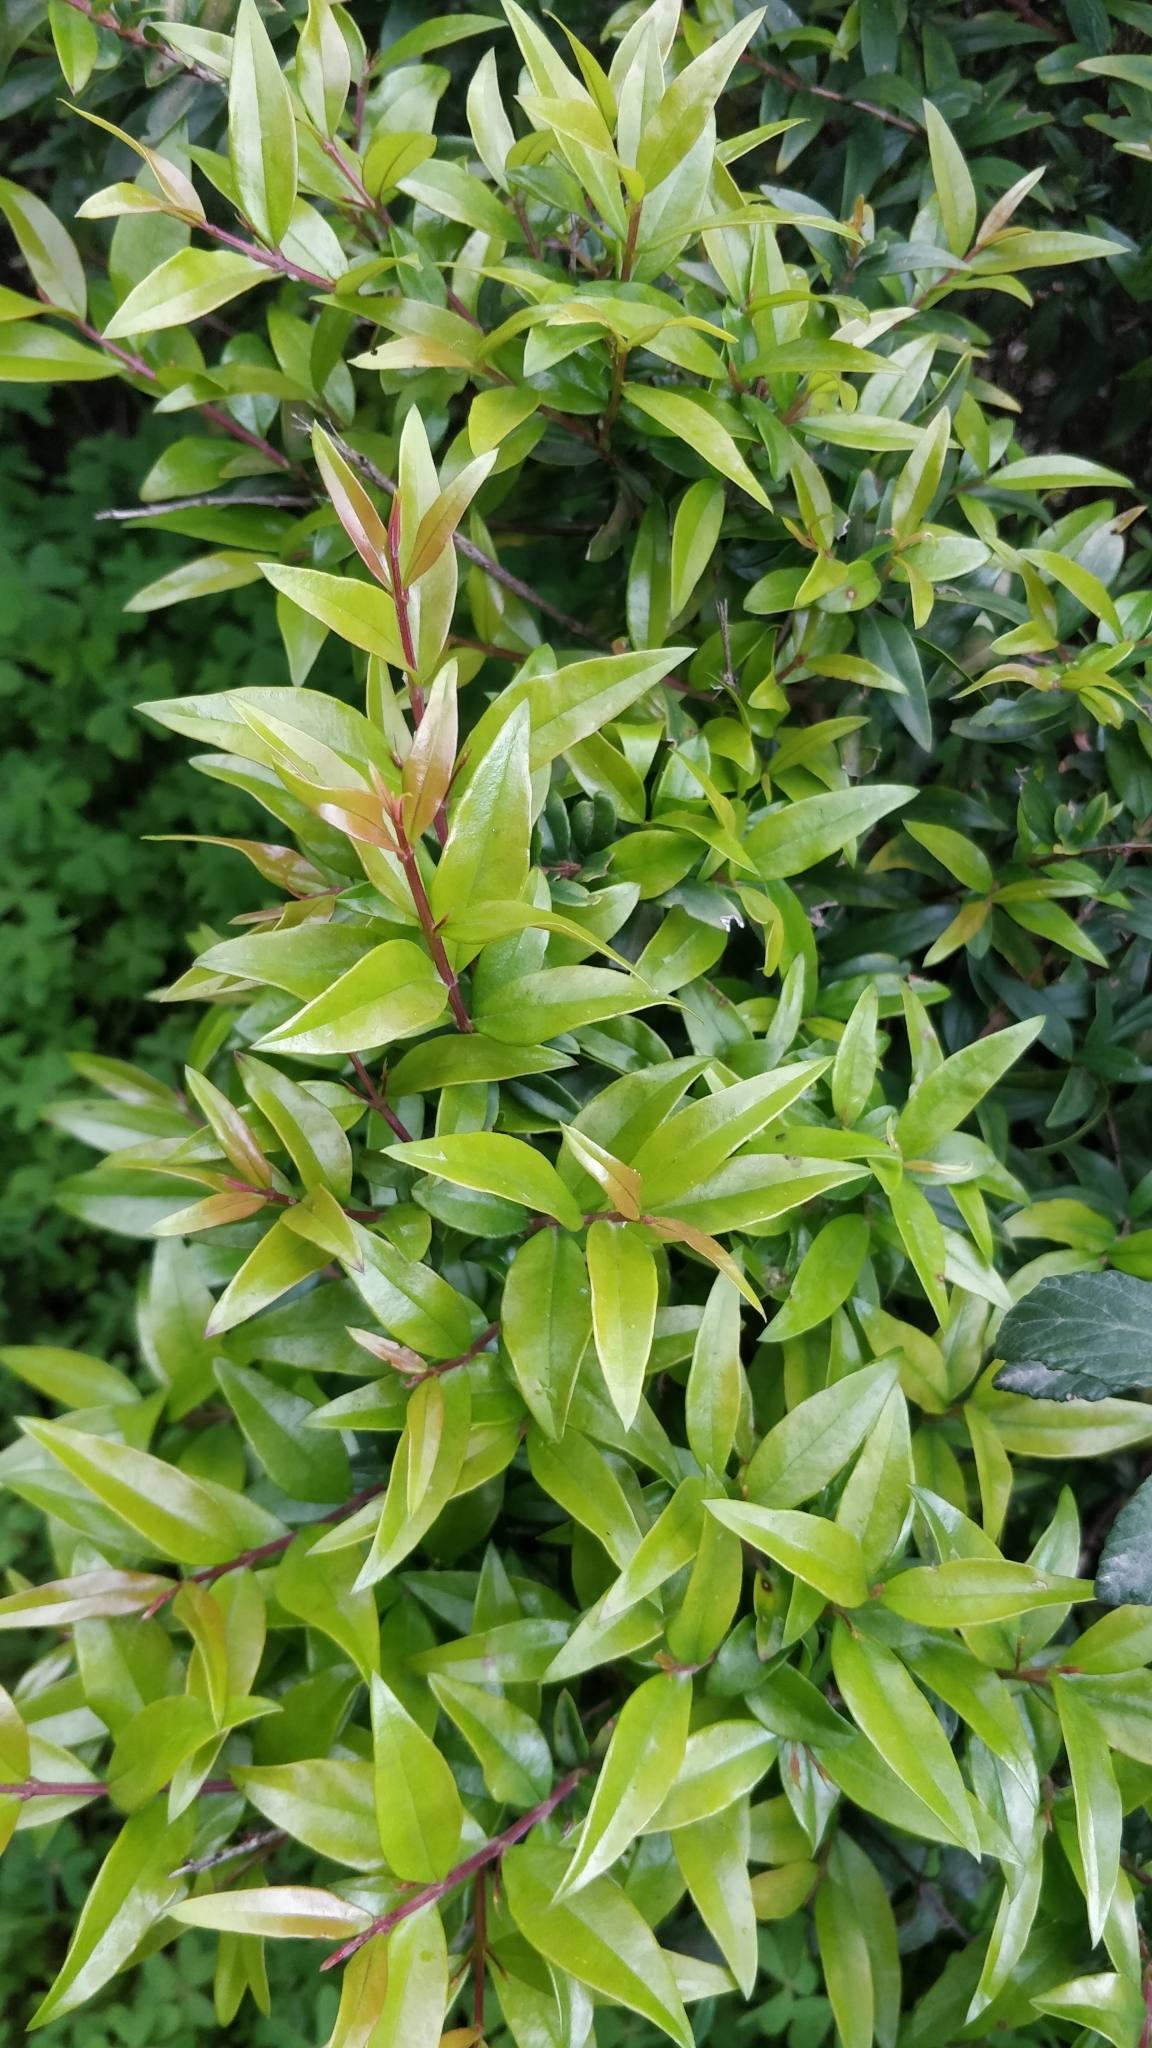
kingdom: Plantae
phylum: Tracheophyta
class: Magnoliopsida
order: Myrtales
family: Myrtaceae
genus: Myrtus
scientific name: Myrtus communis
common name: Myrtle
